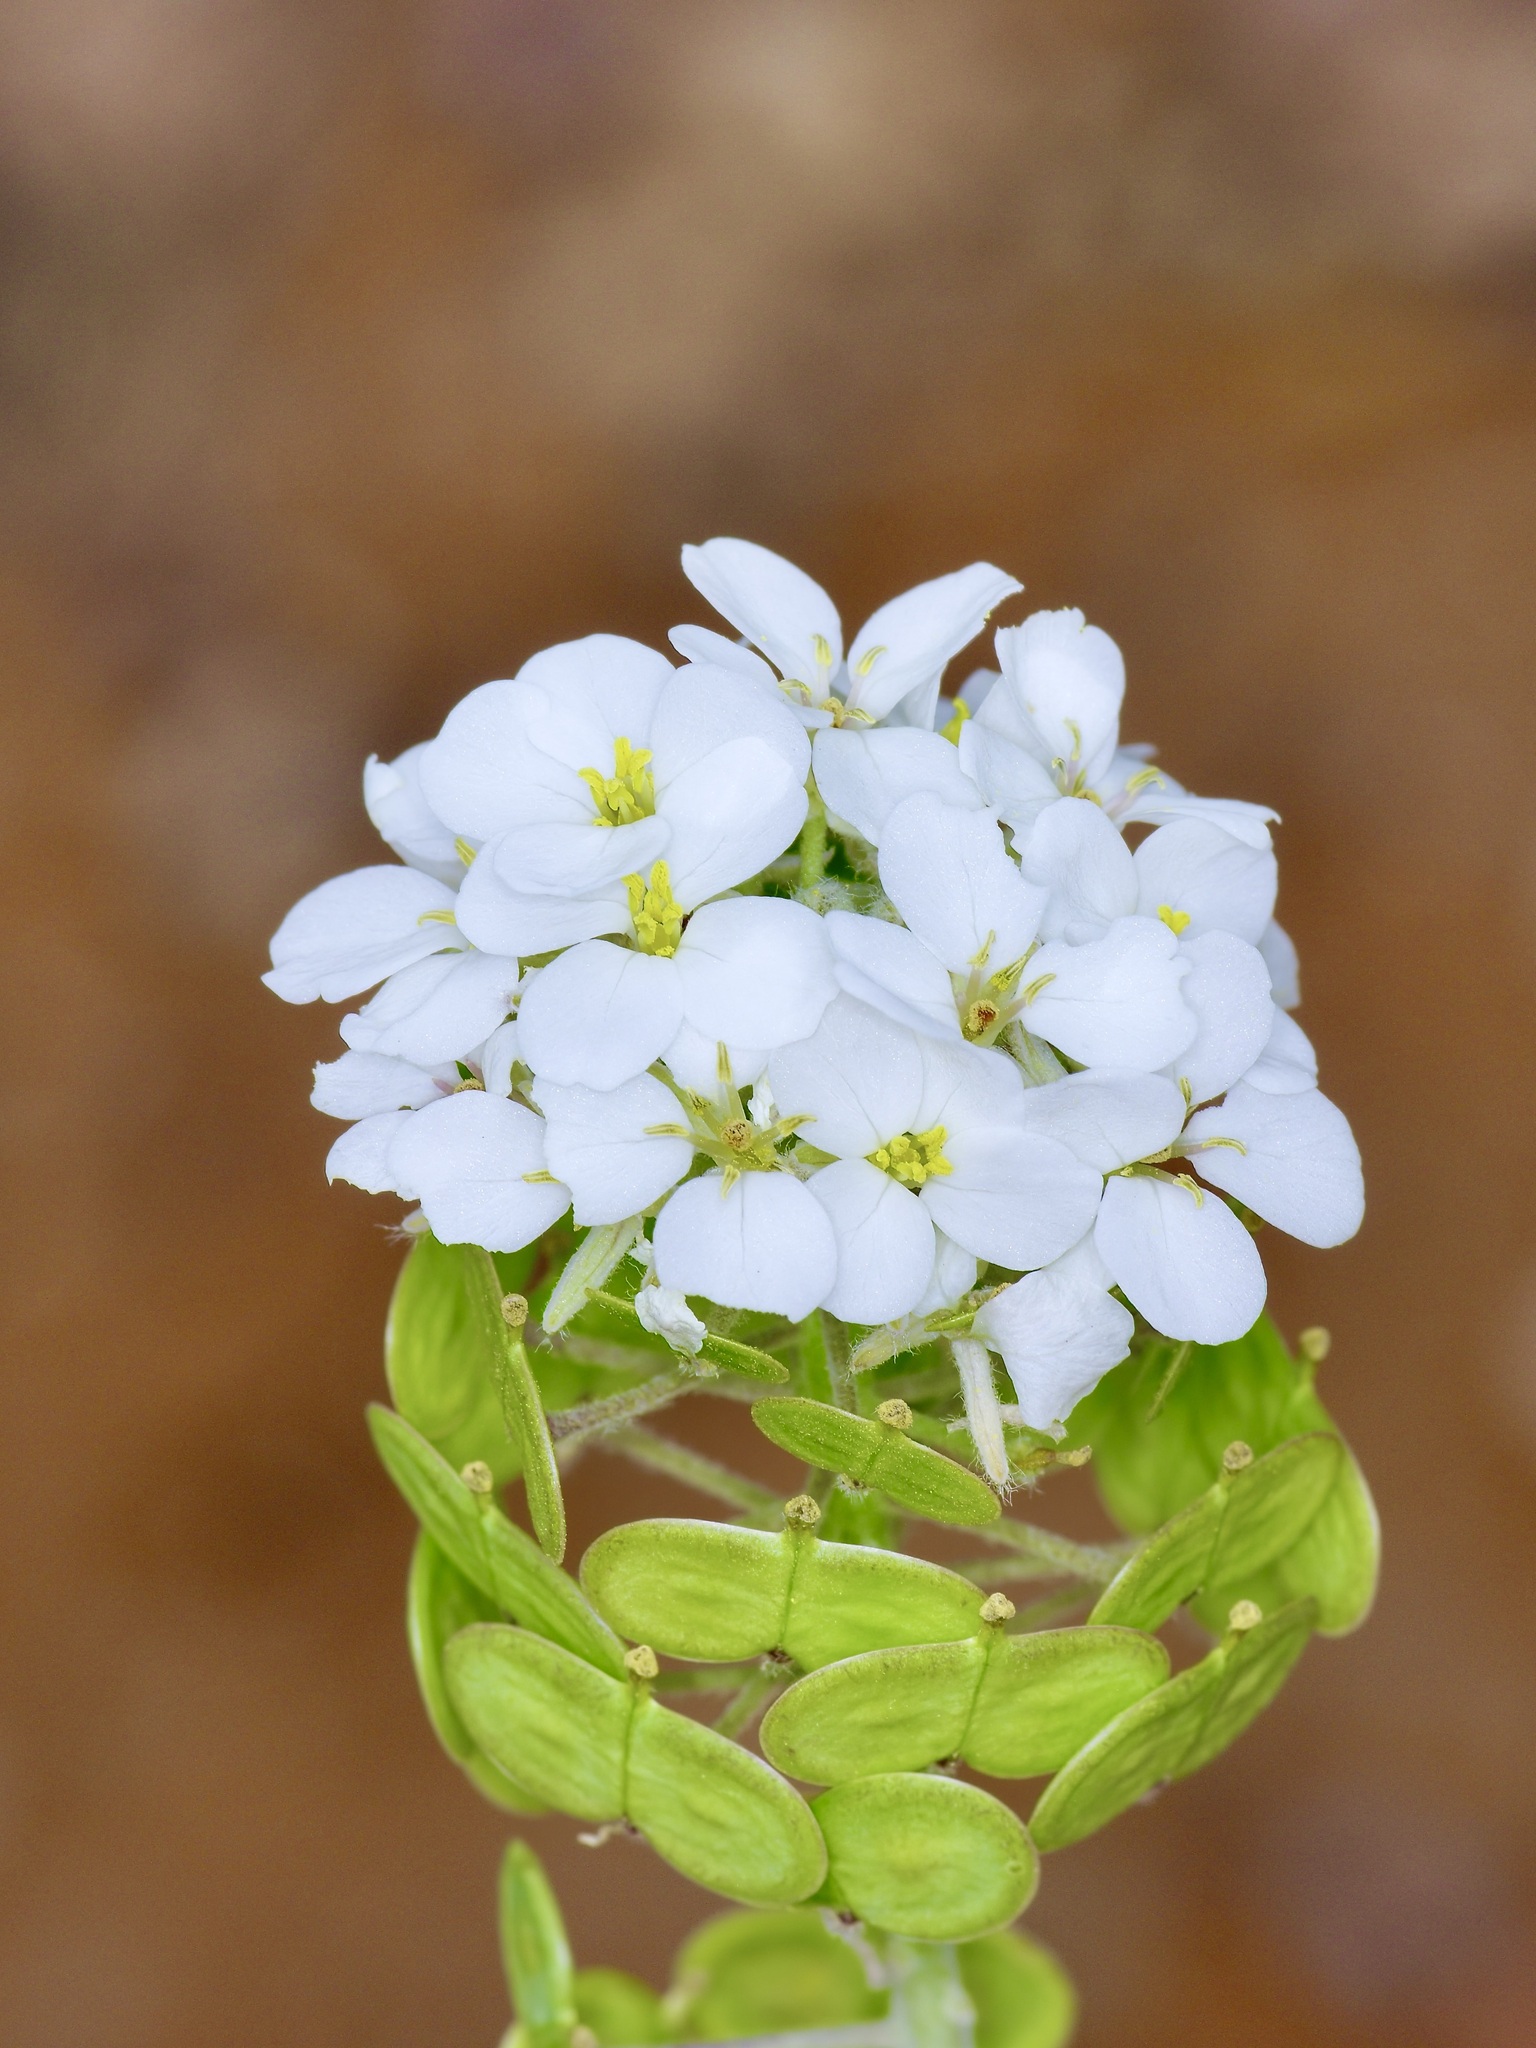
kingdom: Plantae
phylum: Tracheophyta
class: Magnoliopsida
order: Brassicales
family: Brassicaceae
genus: Dimorphocarpa
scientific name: Dimorphocarpa wislizenii
